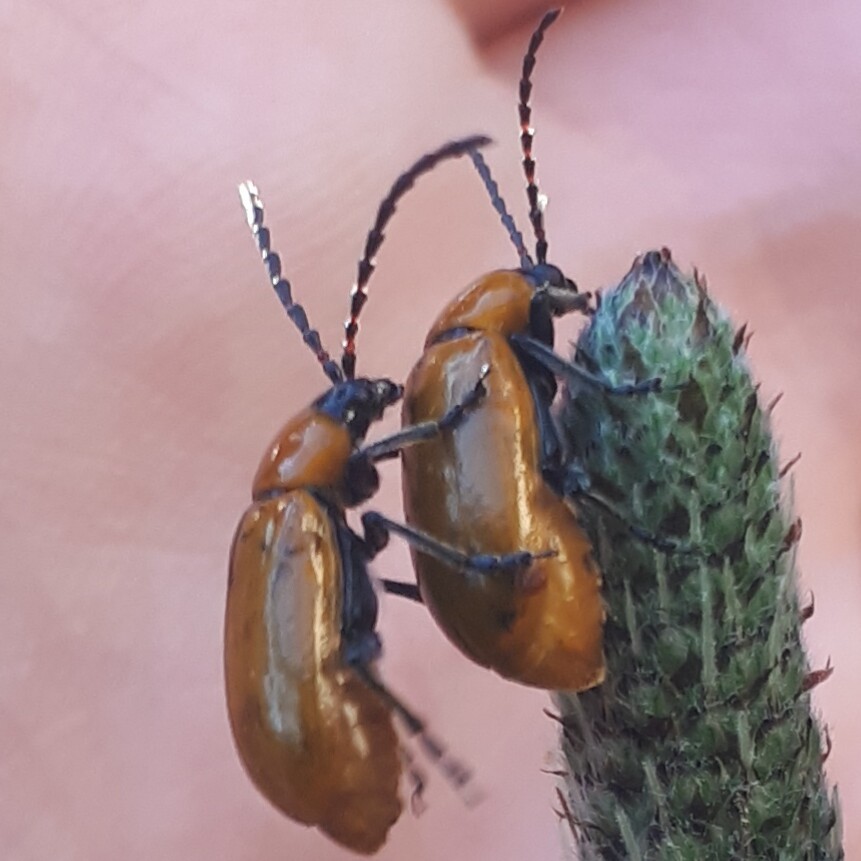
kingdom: Animalia
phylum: Arthropoda
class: Insecta
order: Coleoptera
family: Chrysomelidae
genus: Exosoma
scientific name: Exosoma lusitanicum
